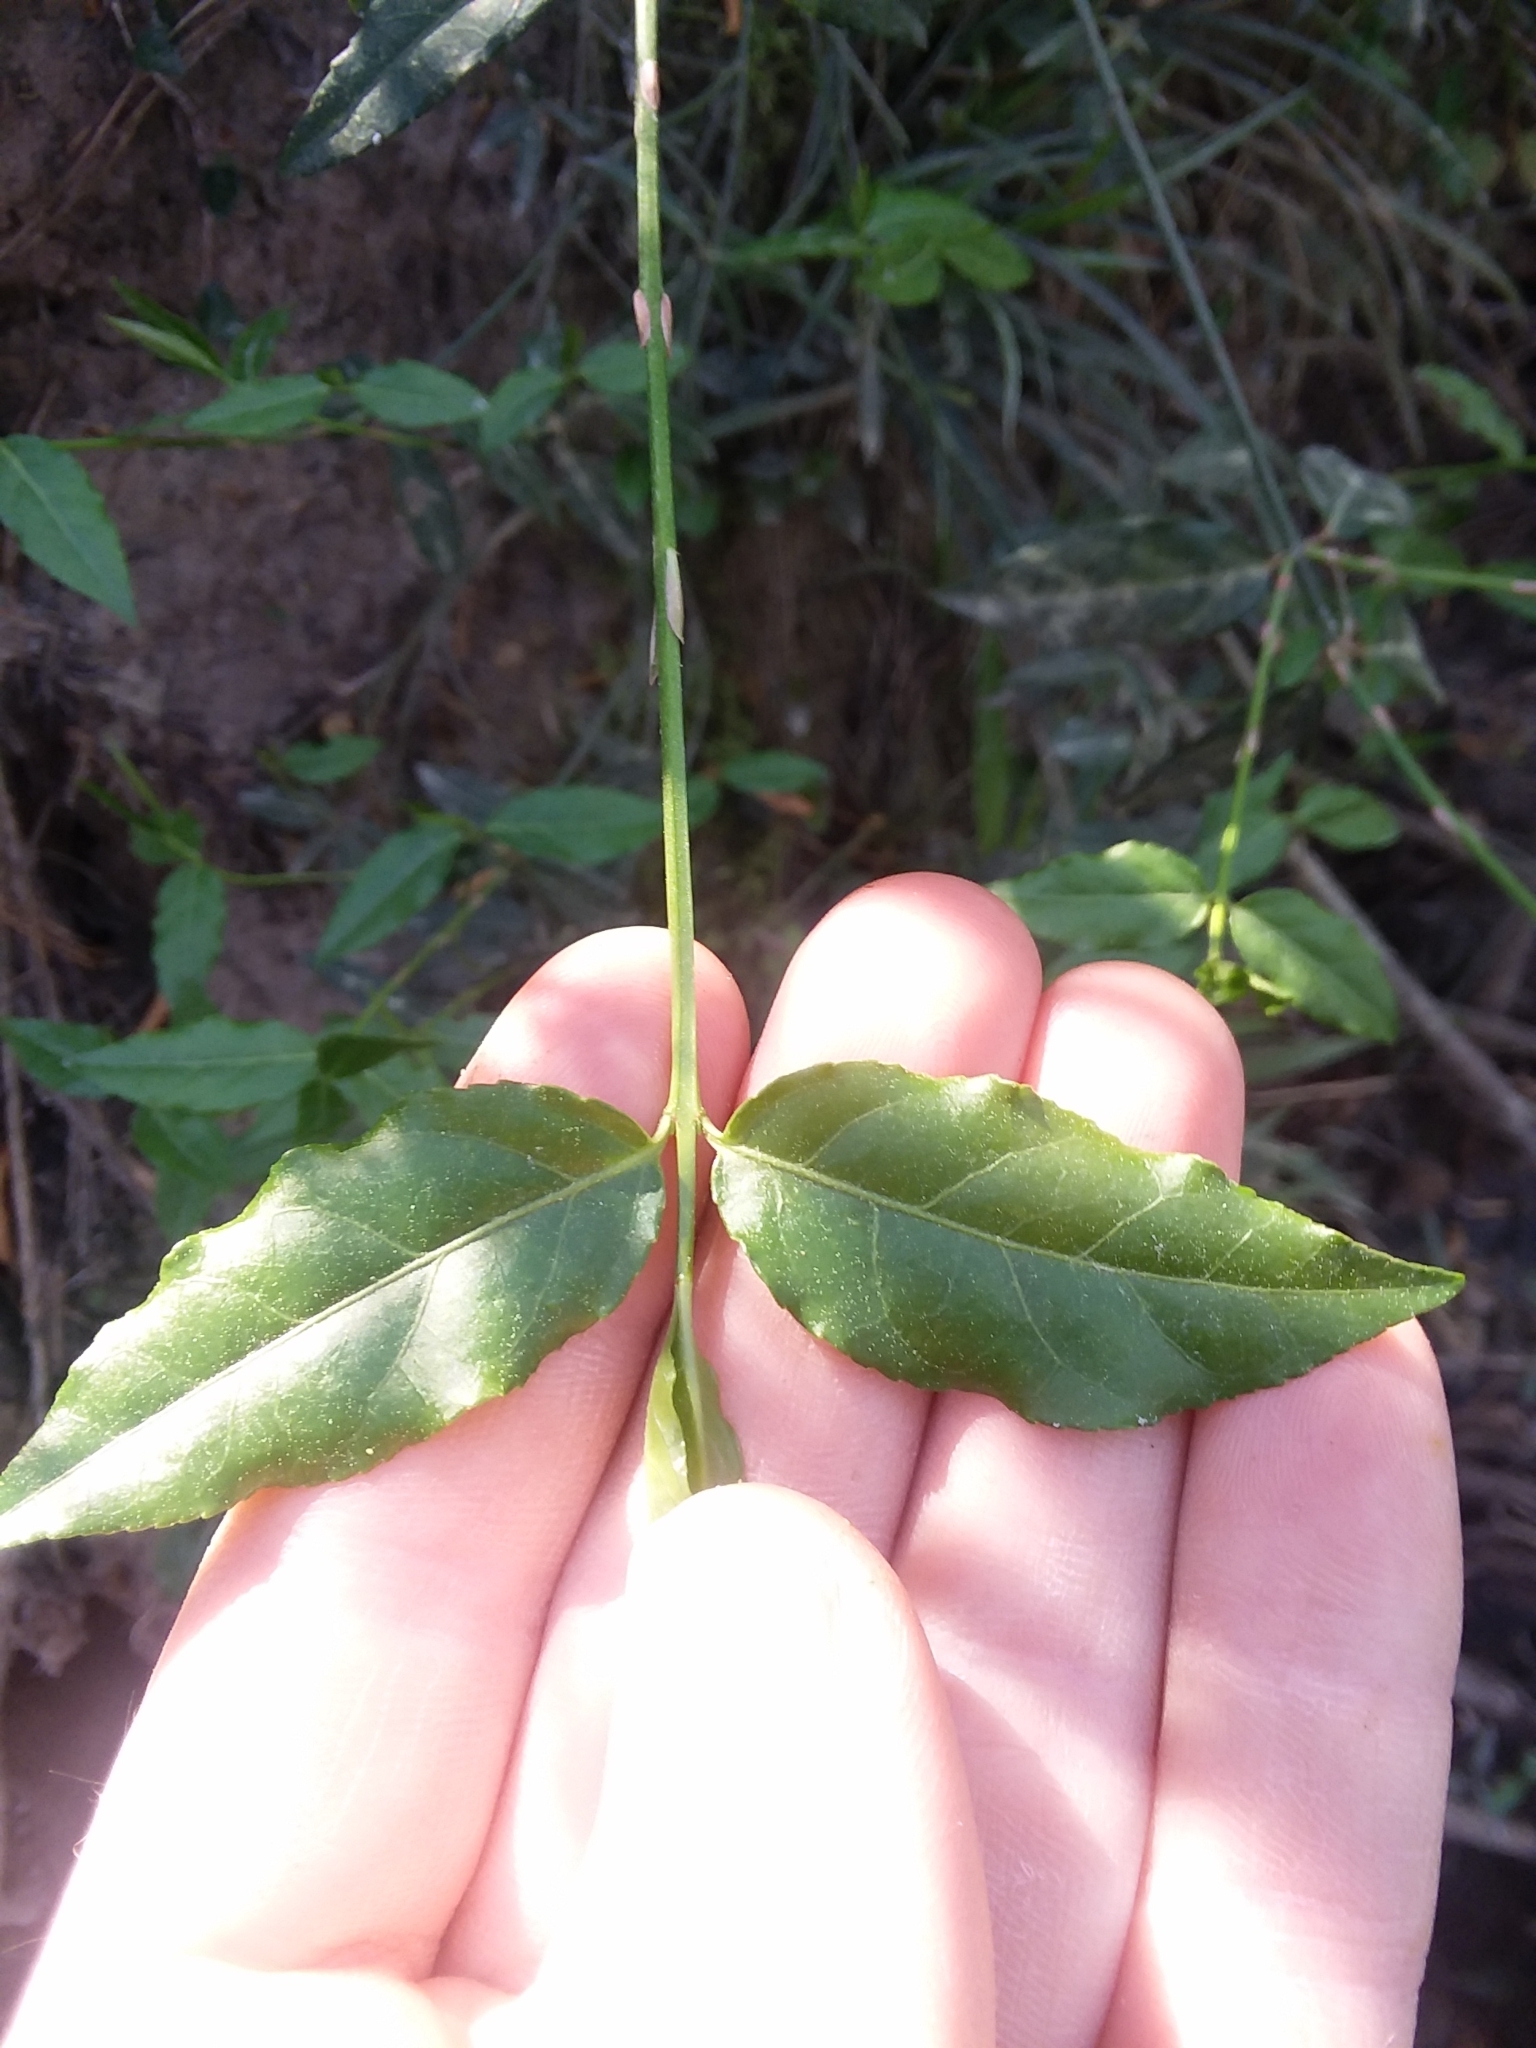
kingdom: Plantae
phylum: Tracheophyta
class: Magnoliopsida
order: Celastrales
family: Celastraceae
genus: Euonymus
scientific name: Euonymus americanus
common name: Bursting-heart
